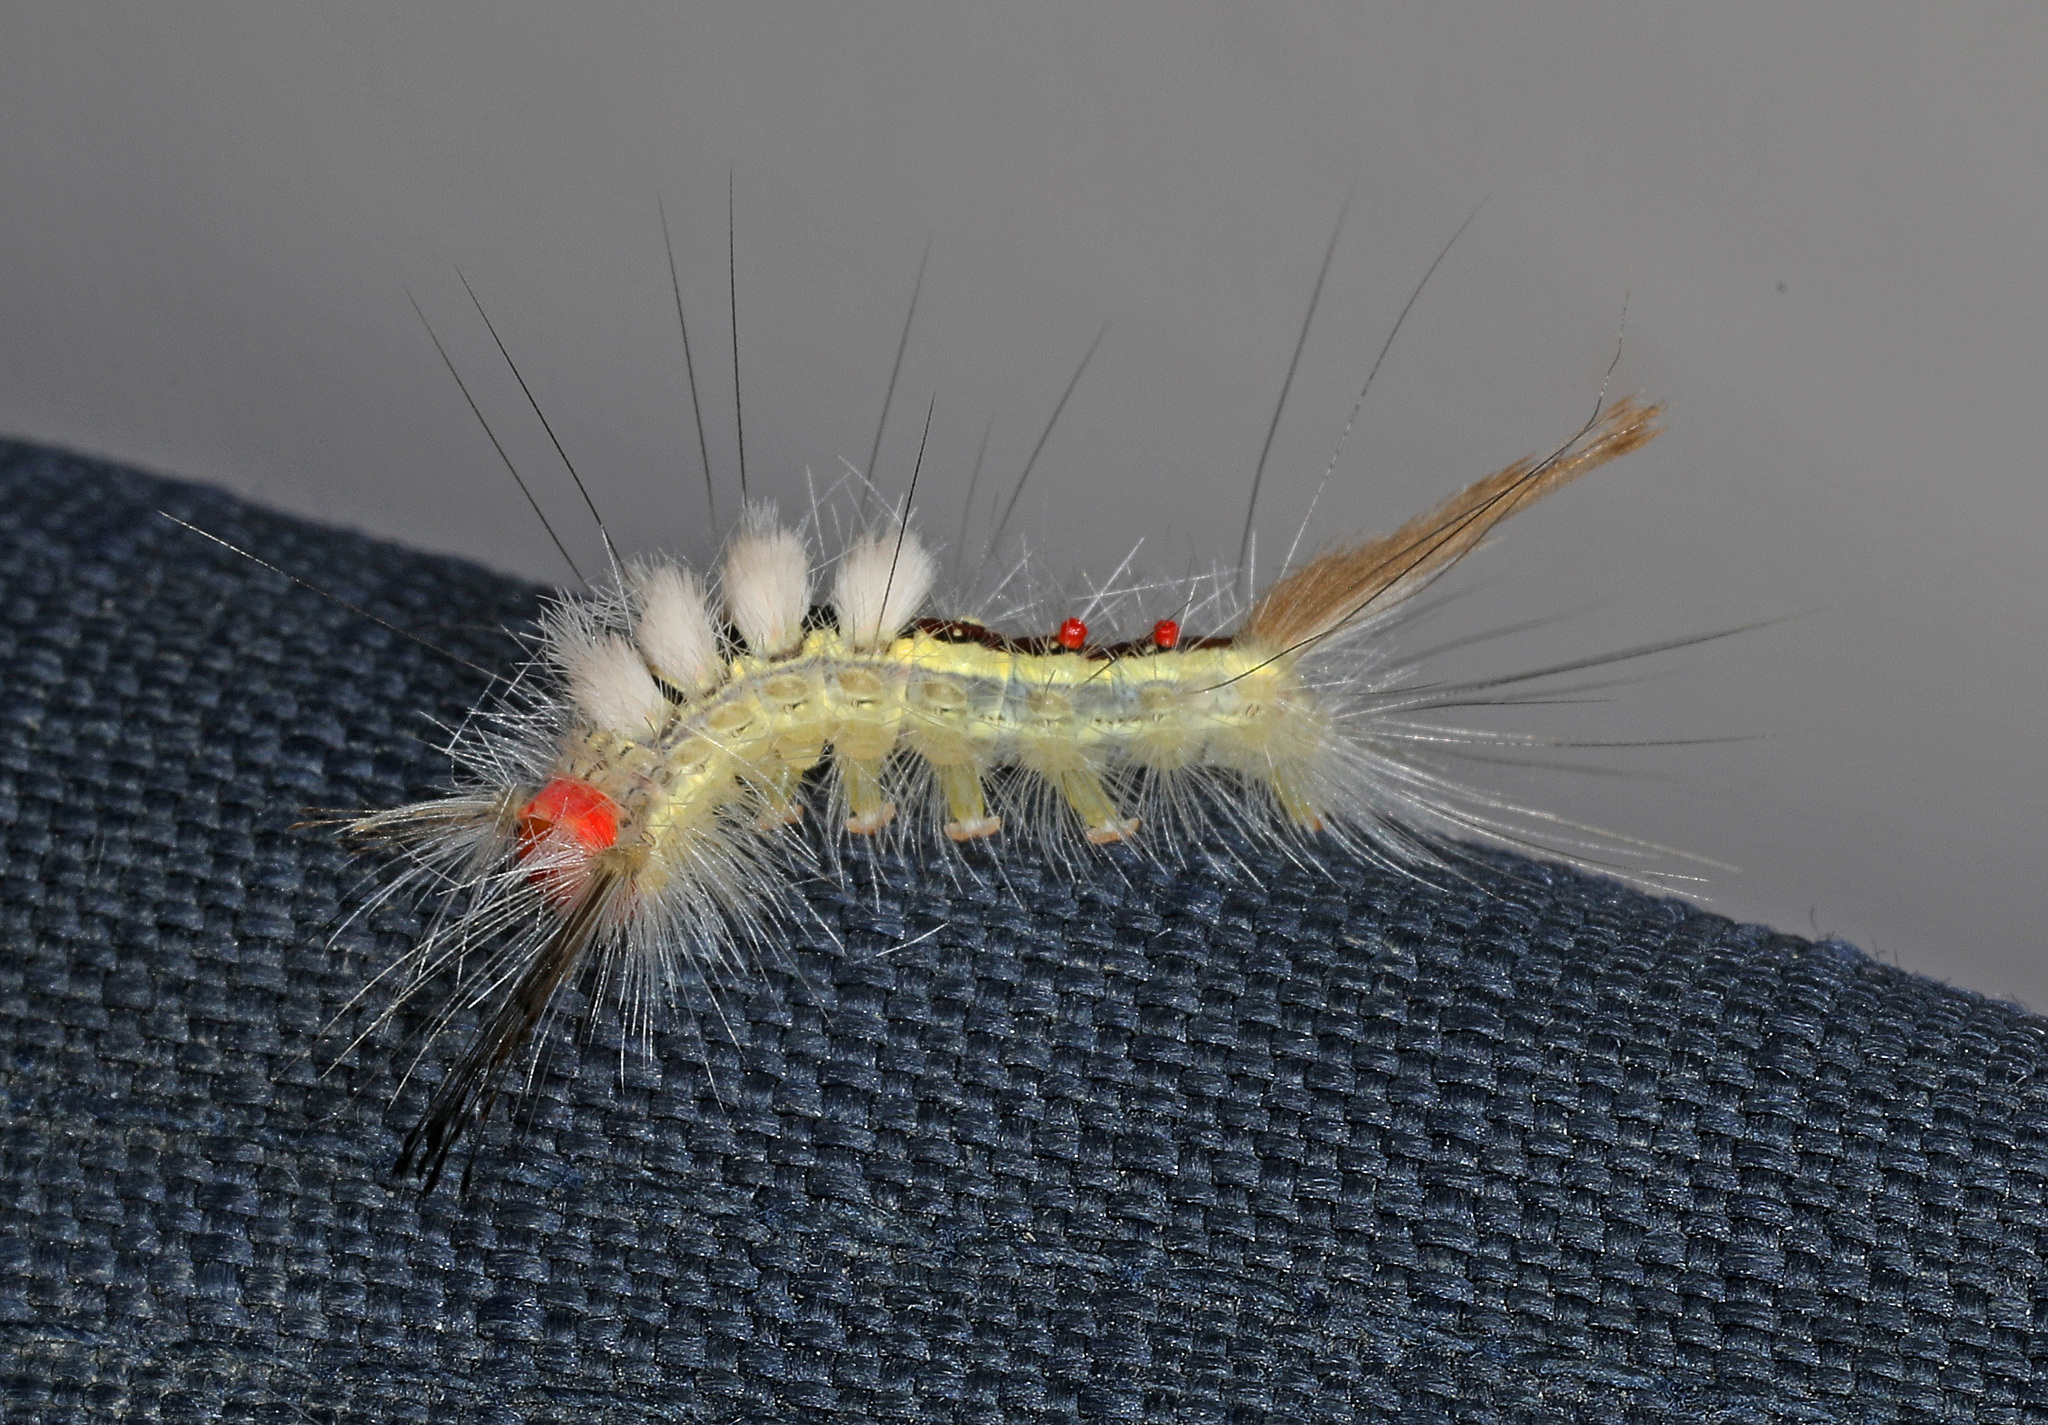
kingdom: Animalia
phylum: Arthropoda
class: Insecta
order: Lepidoptera
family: Erebidae
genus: Orgyia
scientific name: Orgyia leucostigma
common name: White-marked tussock moth
